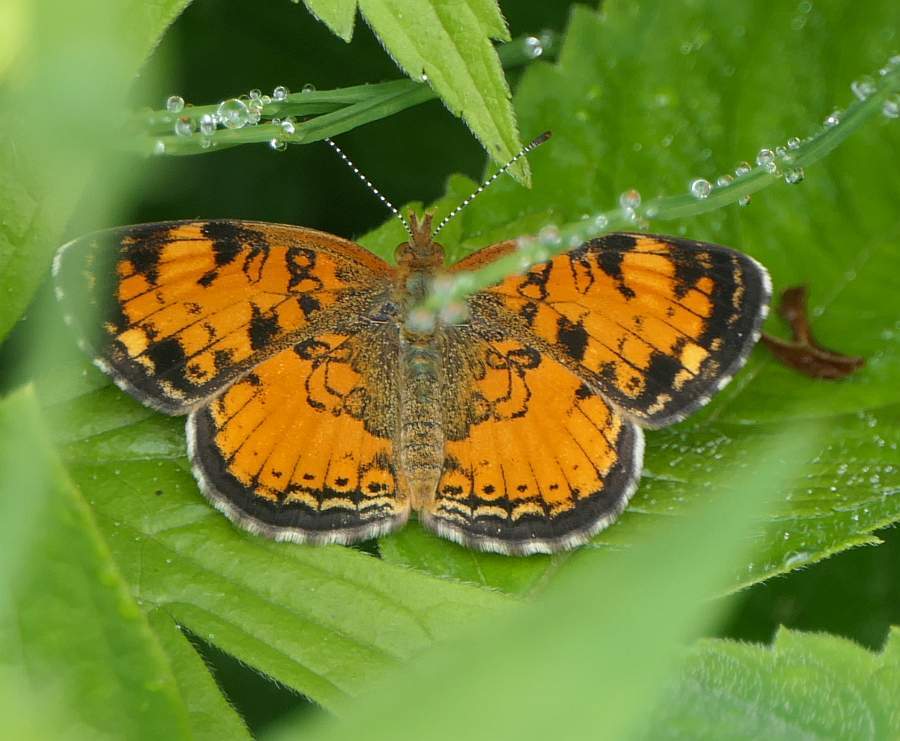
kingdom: Animalia
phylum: Arthropoda
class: Insecta
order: Lepidoptera
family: Nymphalidae
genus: Phyciodes
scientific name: Phyciodes tharos
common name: Pearl crescent
